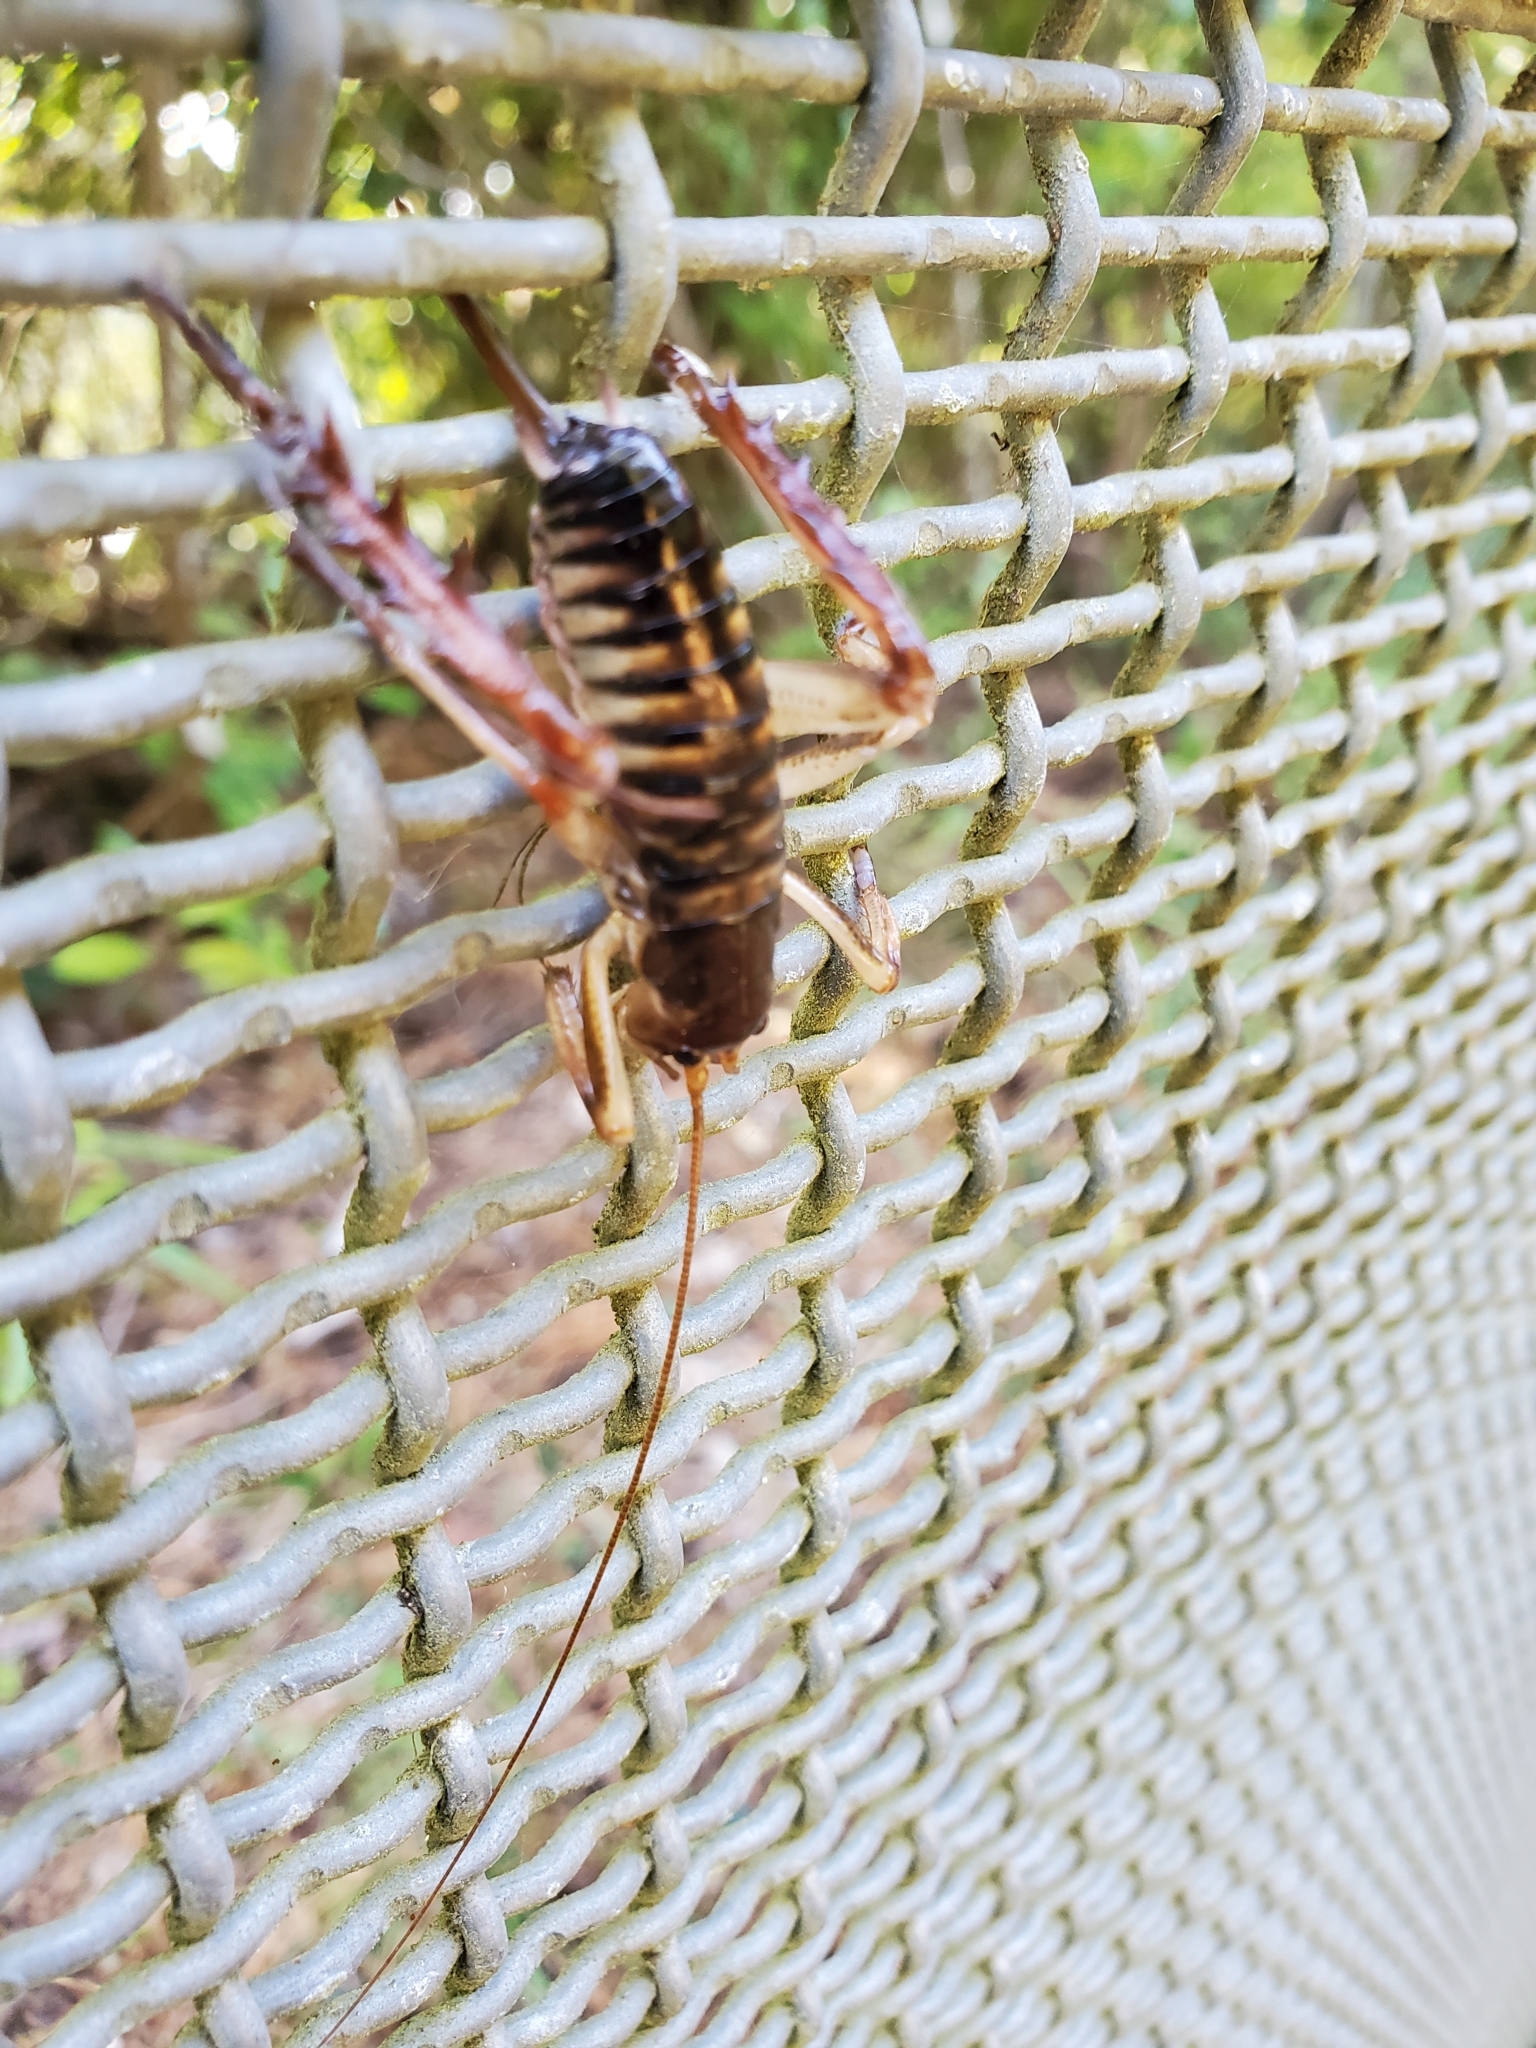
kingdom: Animalia
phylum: Arthropoda
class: Insecta
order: Orthoptera
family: Anostostomatidae
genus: Hemideina
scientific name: Hemideina crassidens
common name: Wellington tree weta
